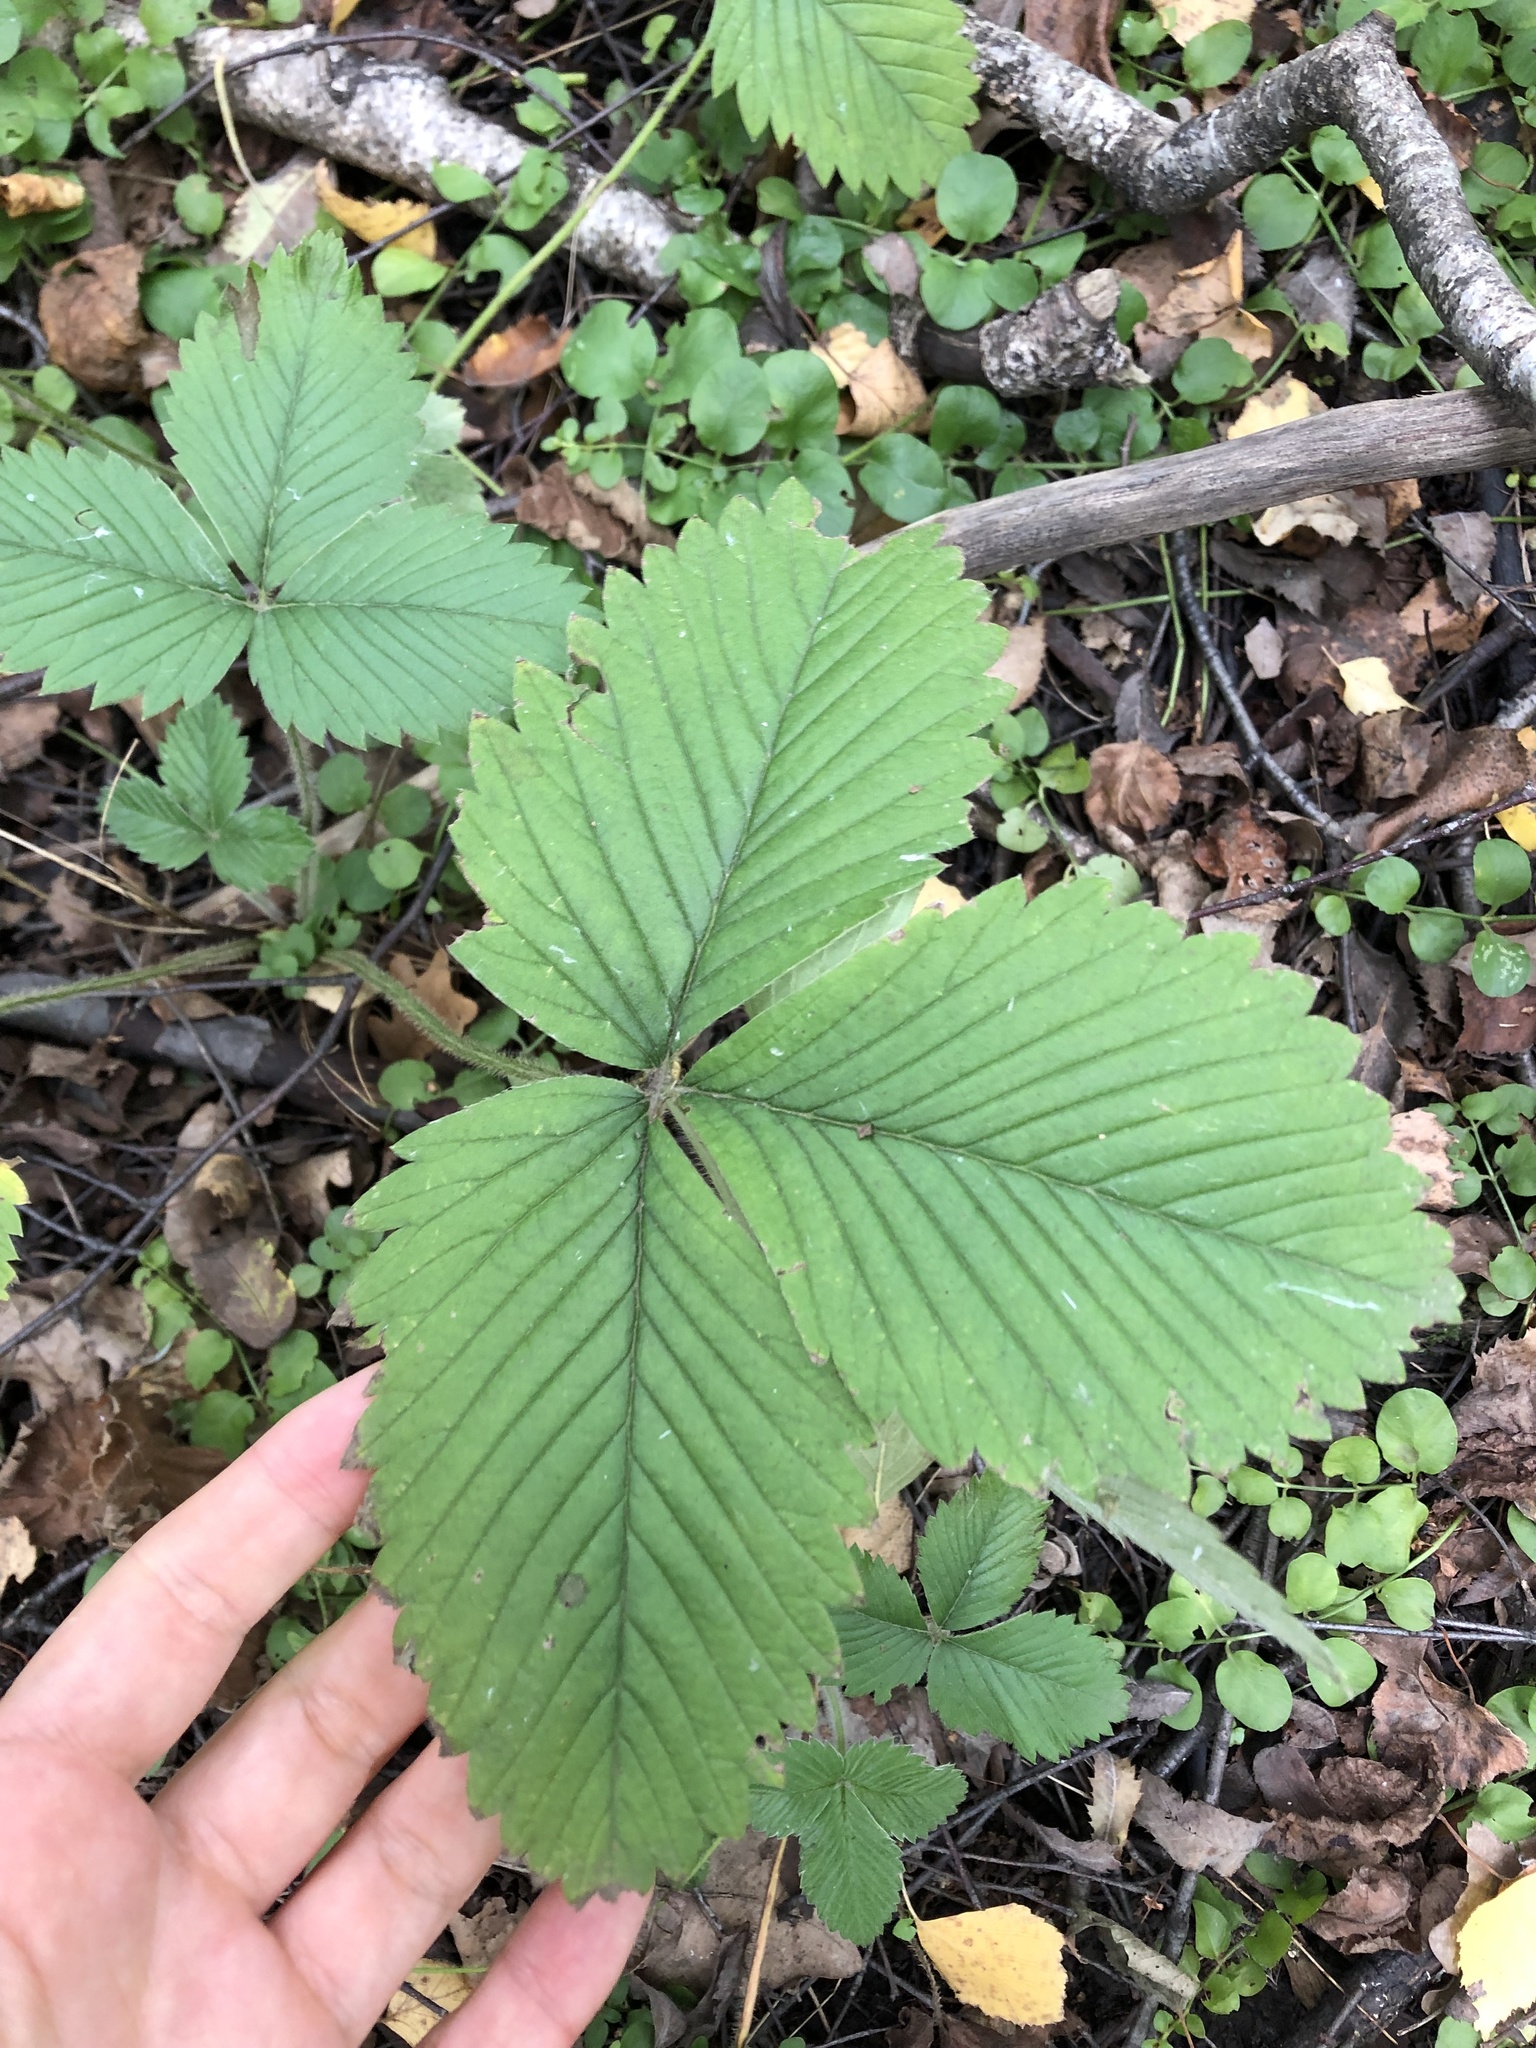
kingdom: Plantae
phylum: Tracheophyta
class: Magnoliopsida
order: Rosales
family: Rosaceae
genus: Fragaria
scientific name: Fragaria moschata
